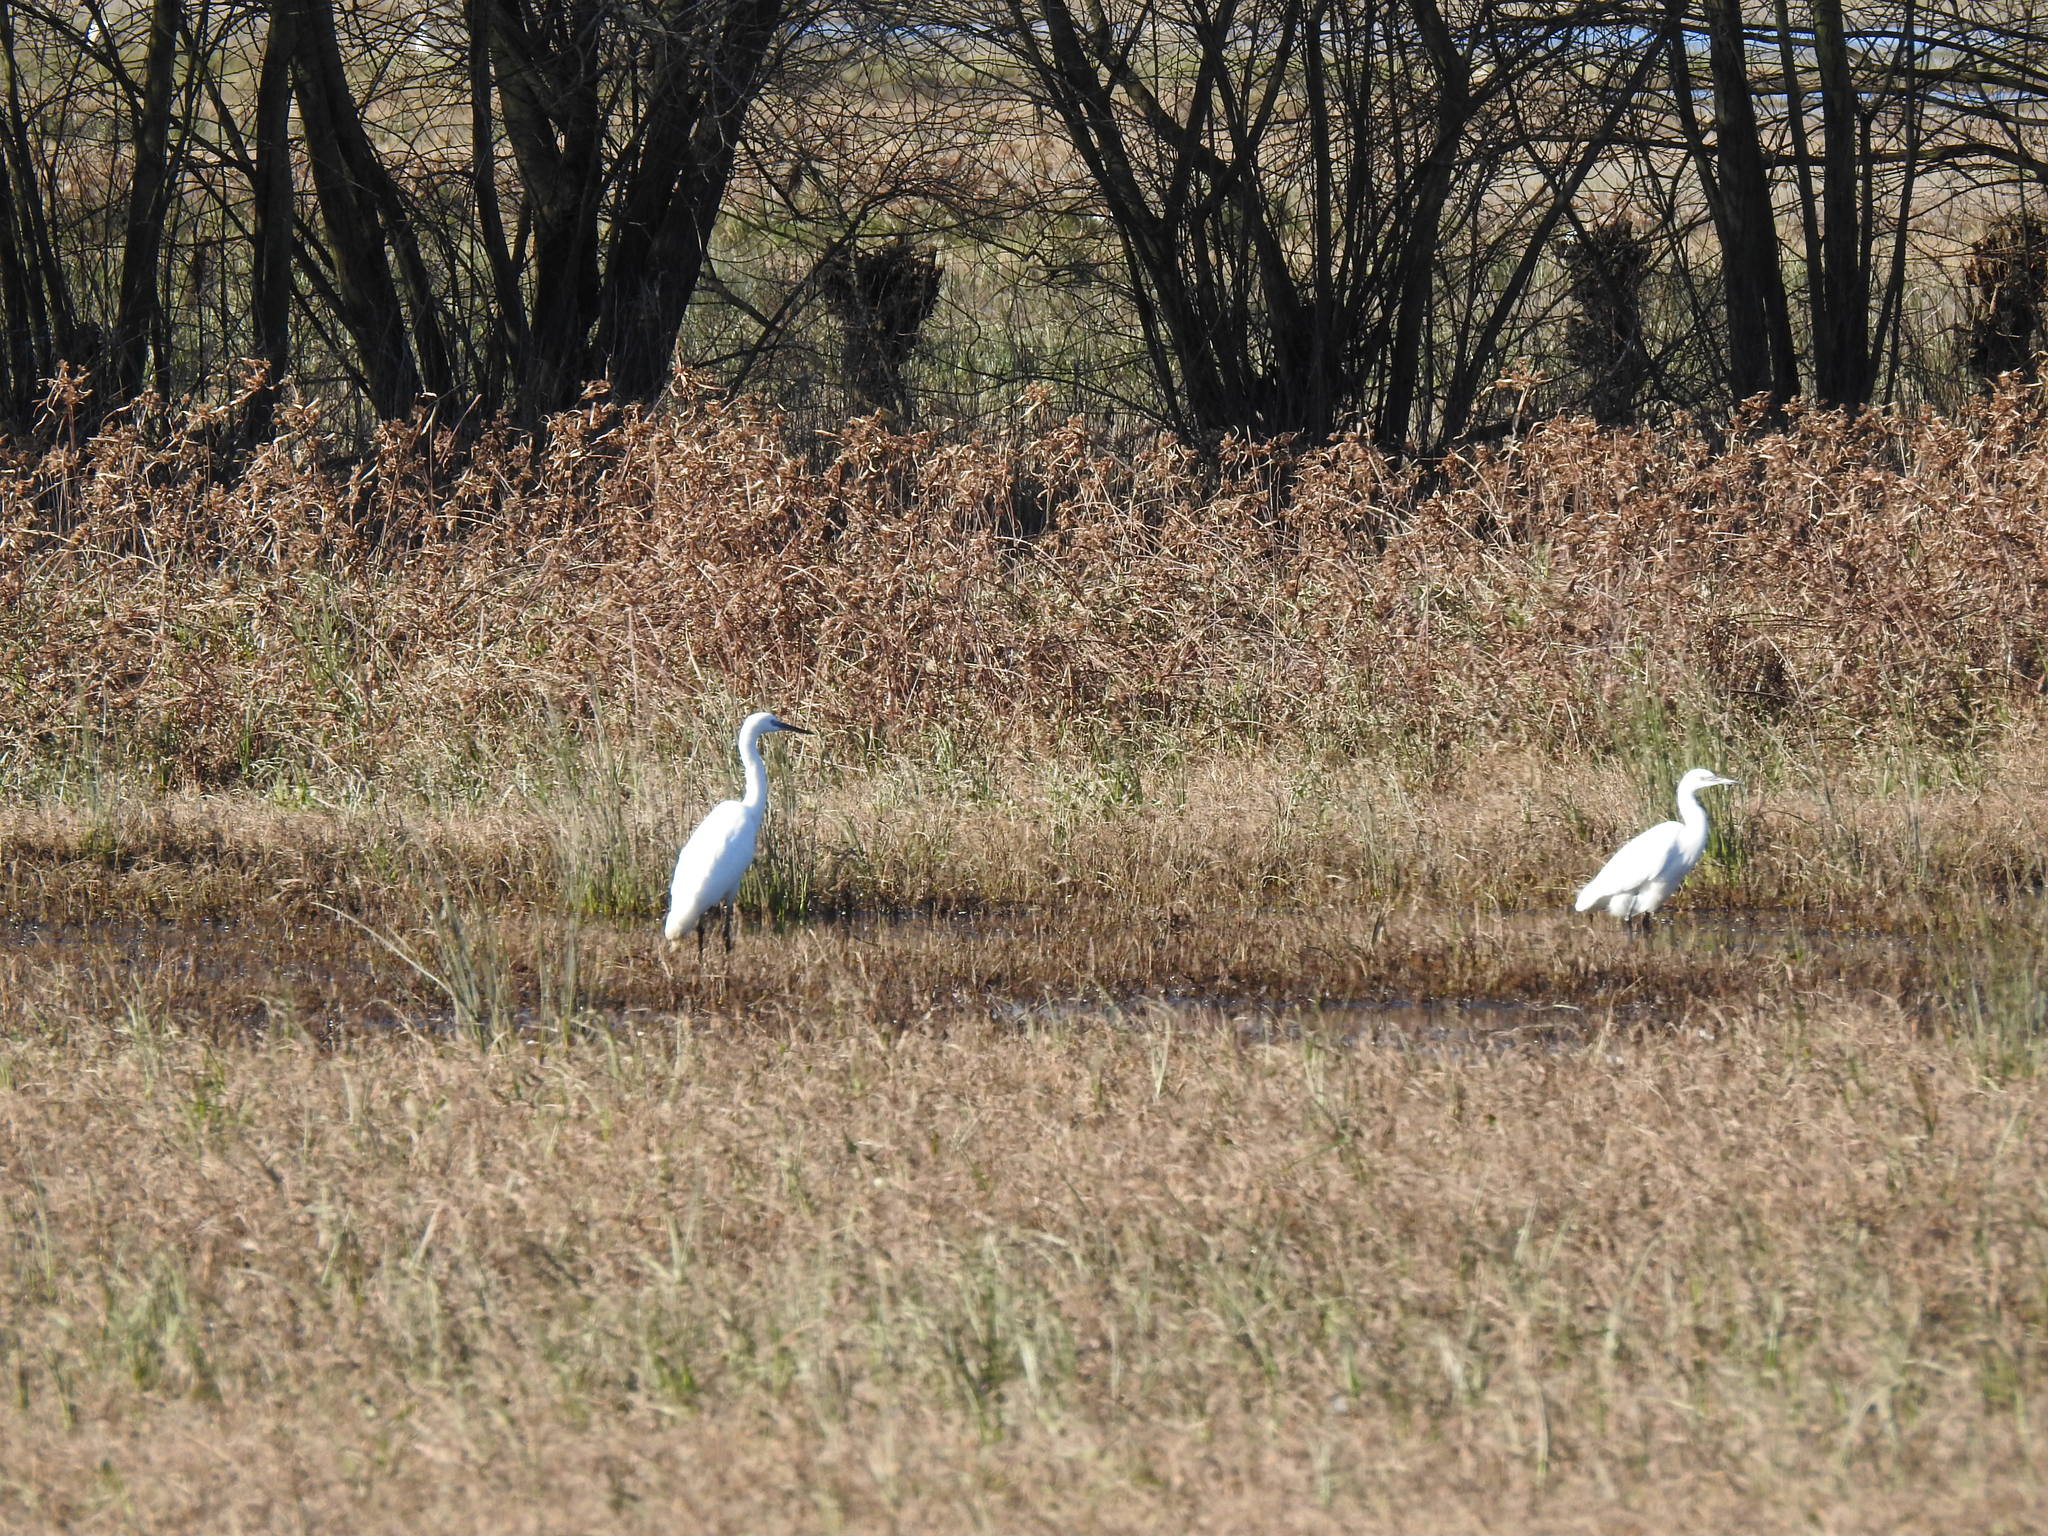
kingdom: Animalia
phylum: Chordata
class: Aves
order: Pelecaniformes
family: Ardeidae
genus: Egretta
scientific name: Egretta garzetta
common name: Little egret
